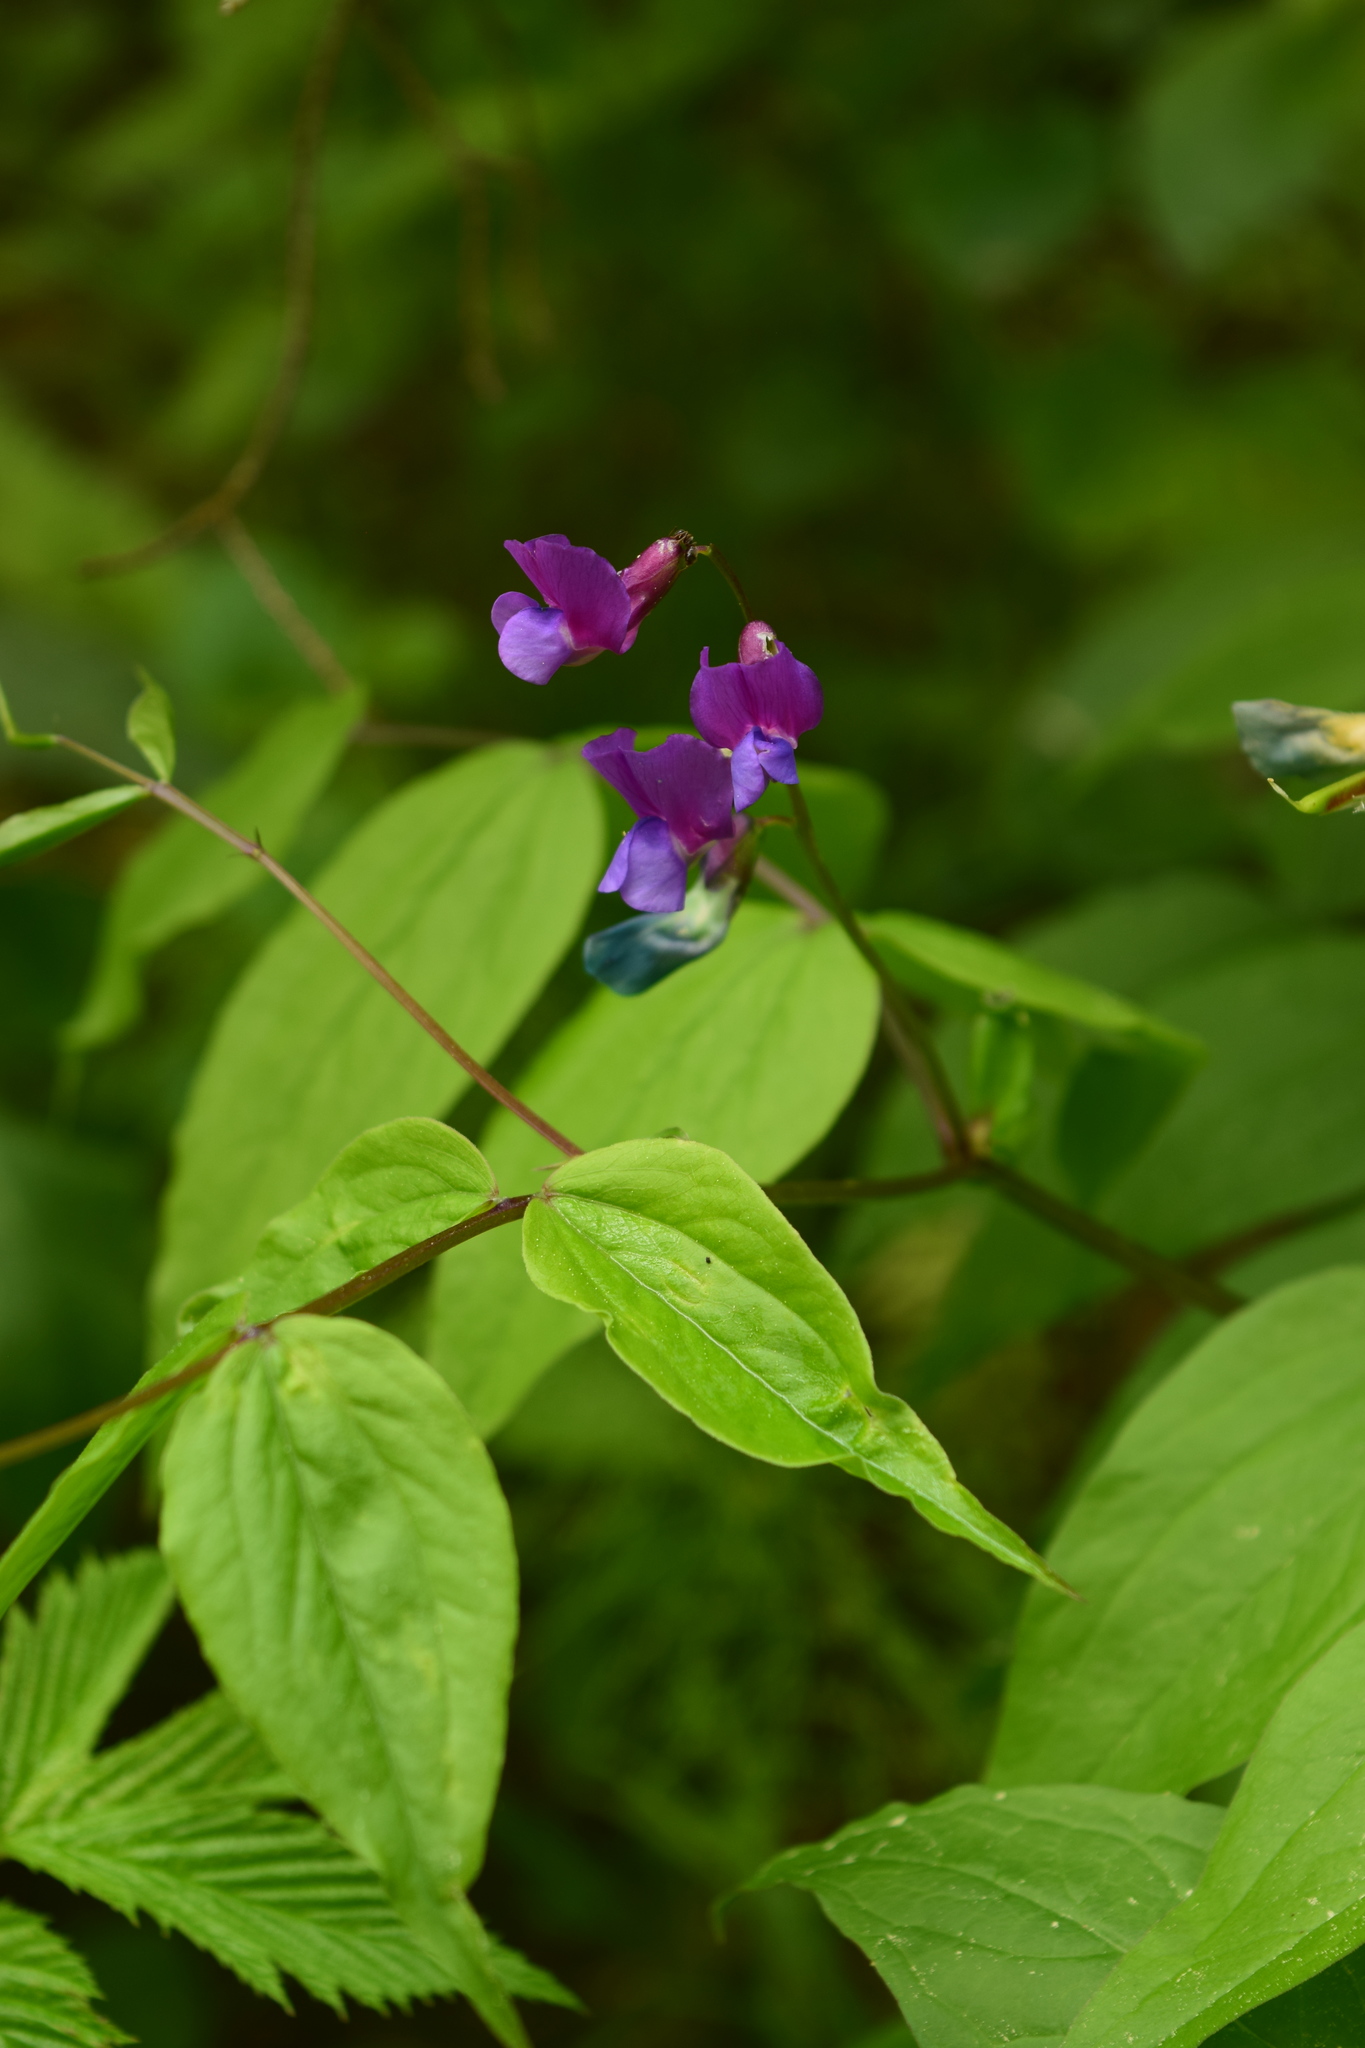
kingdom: Plantae
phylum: Tracheophyta
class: Magnoliopsida
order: Fabales
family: Fabaceae
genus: Lathyrus
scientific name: Lathyrus vernus
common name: Spring pea
